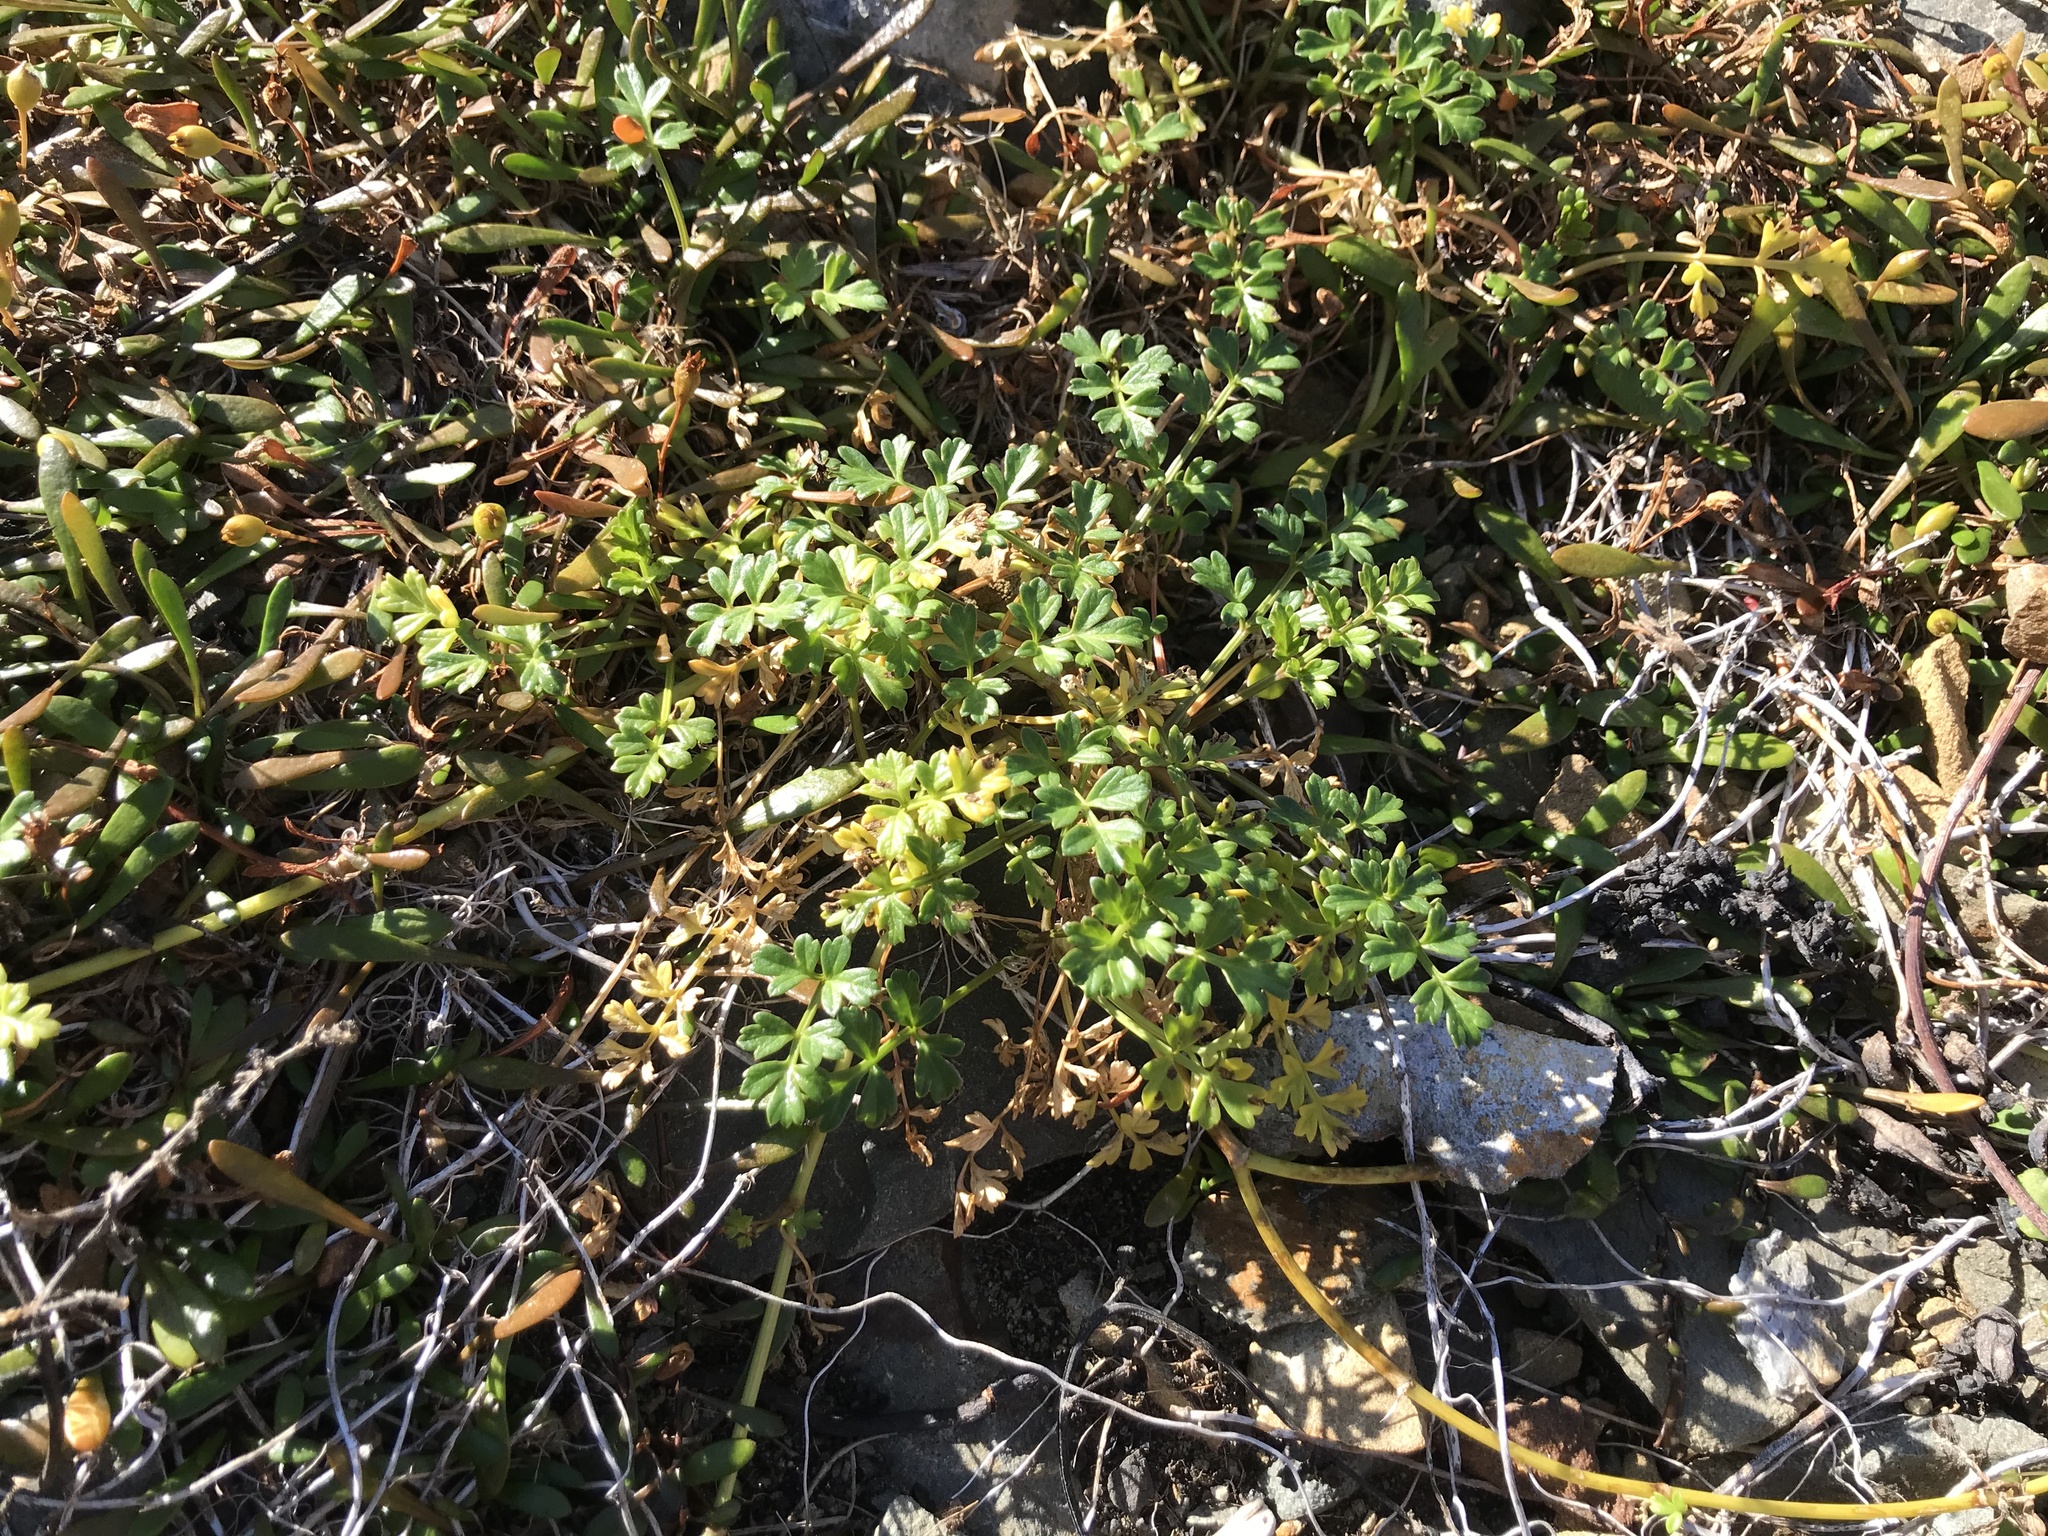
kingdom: Plantae
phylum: Tracheophyta
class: Magnoliopsida
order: Apiales
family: Apiaceae
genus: Apium
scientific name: Apium prostratum
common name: Prostrate marshwort
